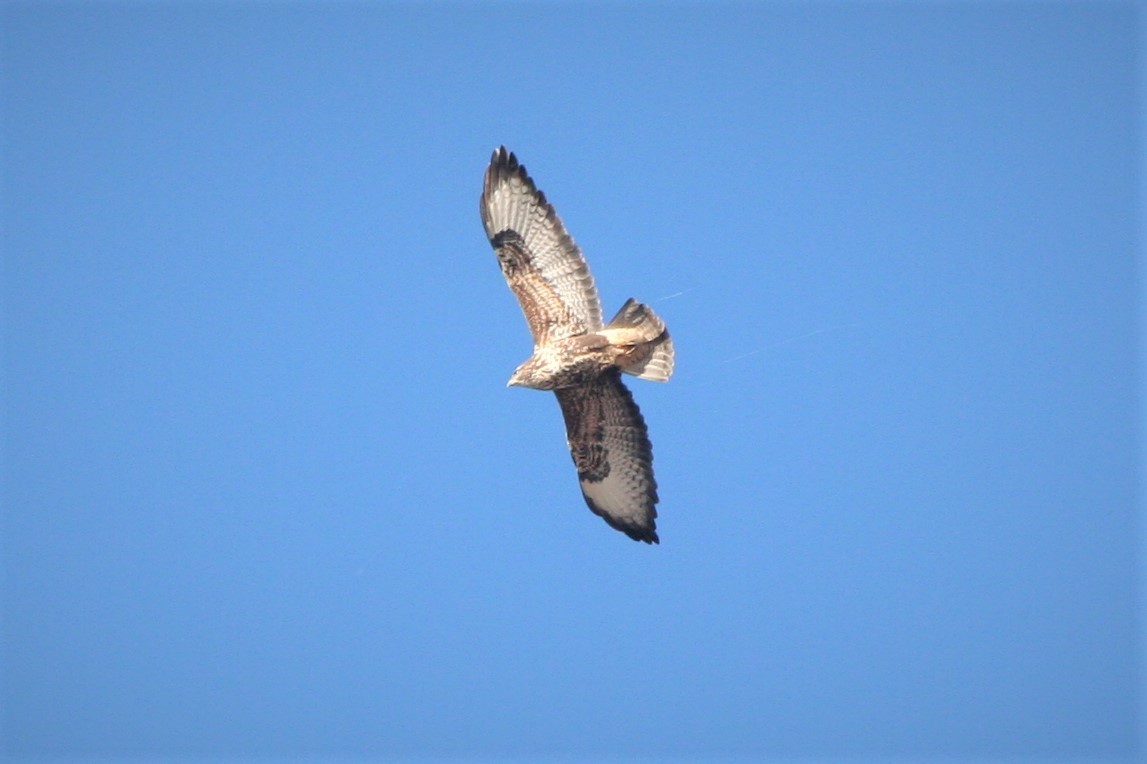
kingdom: Animalia
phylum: Chordata
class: Aves
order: Accipitriformes
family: Accipitridae
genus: Buteo
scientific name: Buteo buteo
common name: Common buzzard
